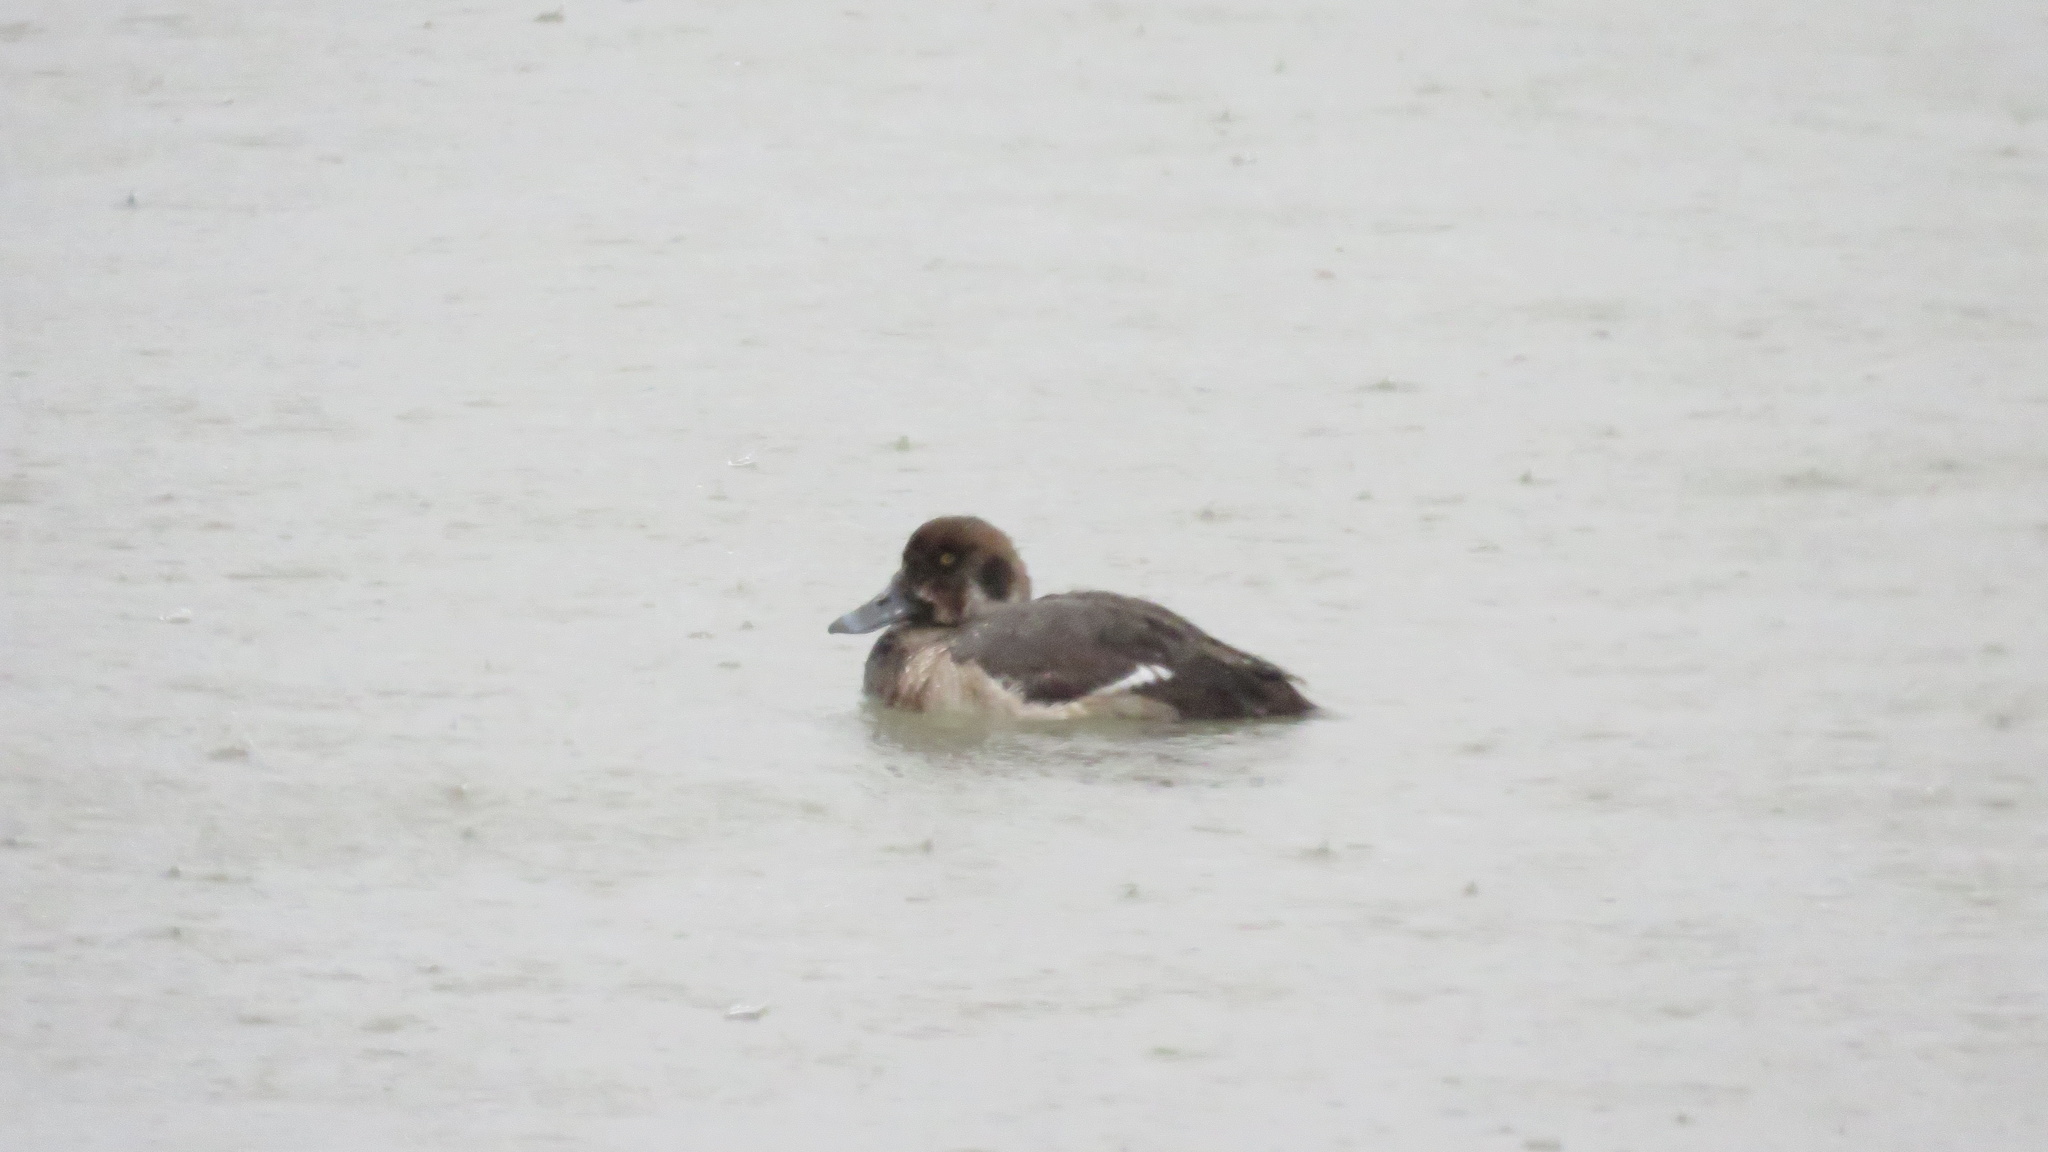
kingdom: Animalia
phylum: Chordata
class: Aves
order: Anseriformes
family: Anatidae
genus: Aythya
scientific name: Aythya marila
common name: Greater scaup
